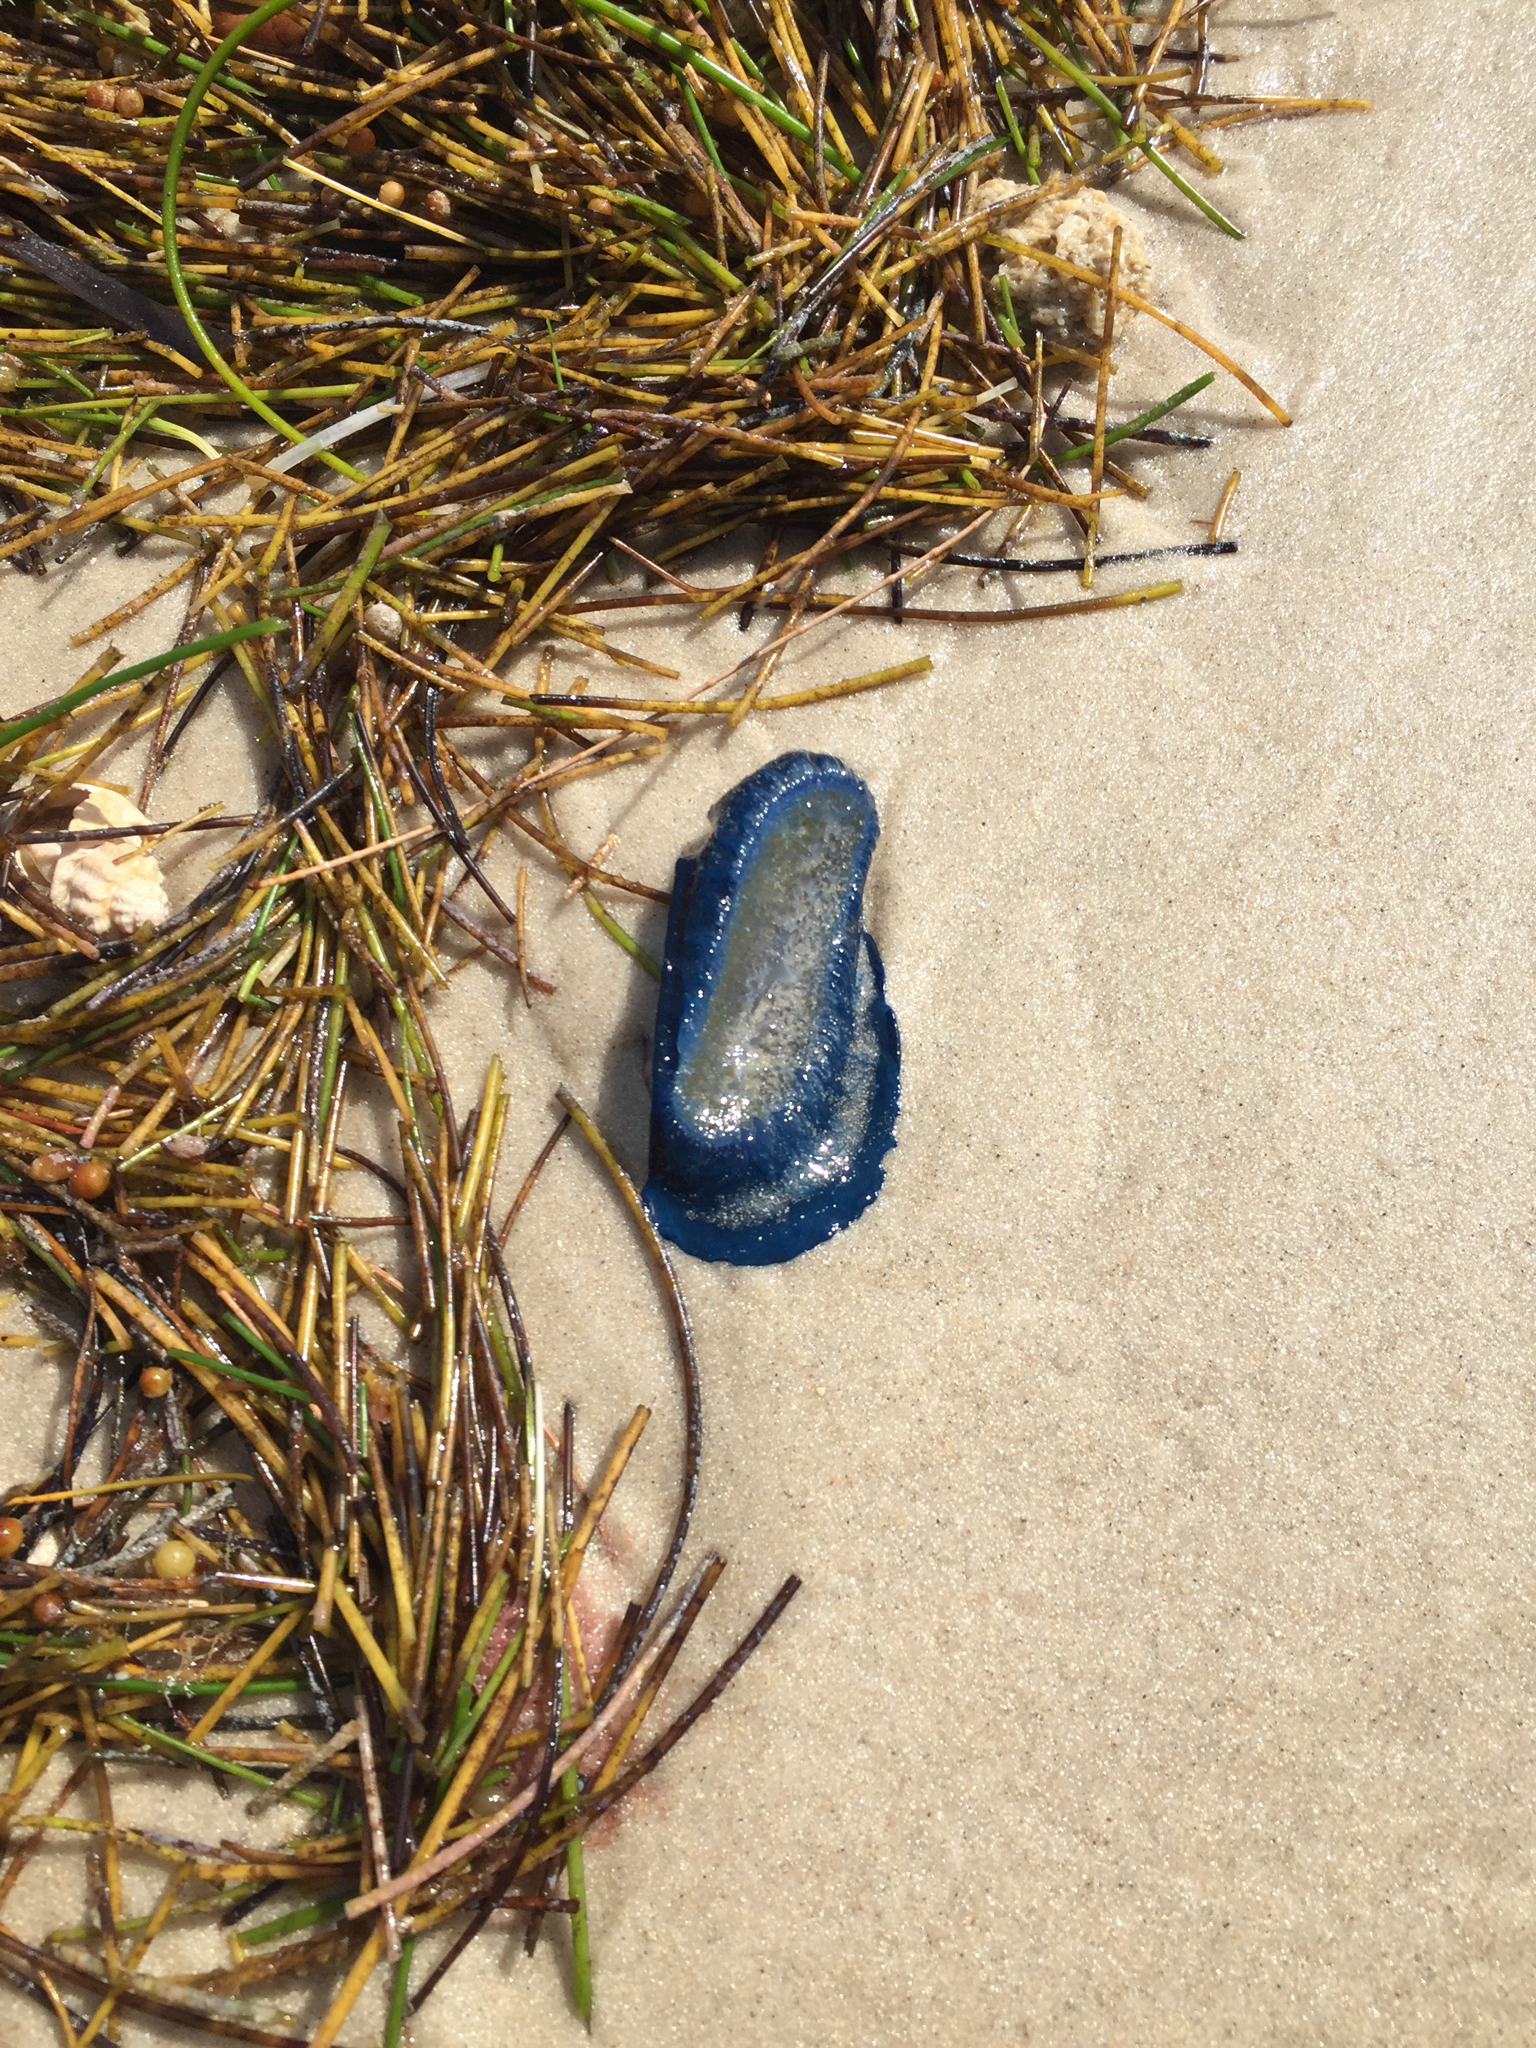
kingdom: Animalia
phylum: Cnidaria
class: Hydrozoa
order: Anthoathecata
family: Porpitidae
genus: Velella
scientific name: Velella velella
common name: By-the-wind-sailor
